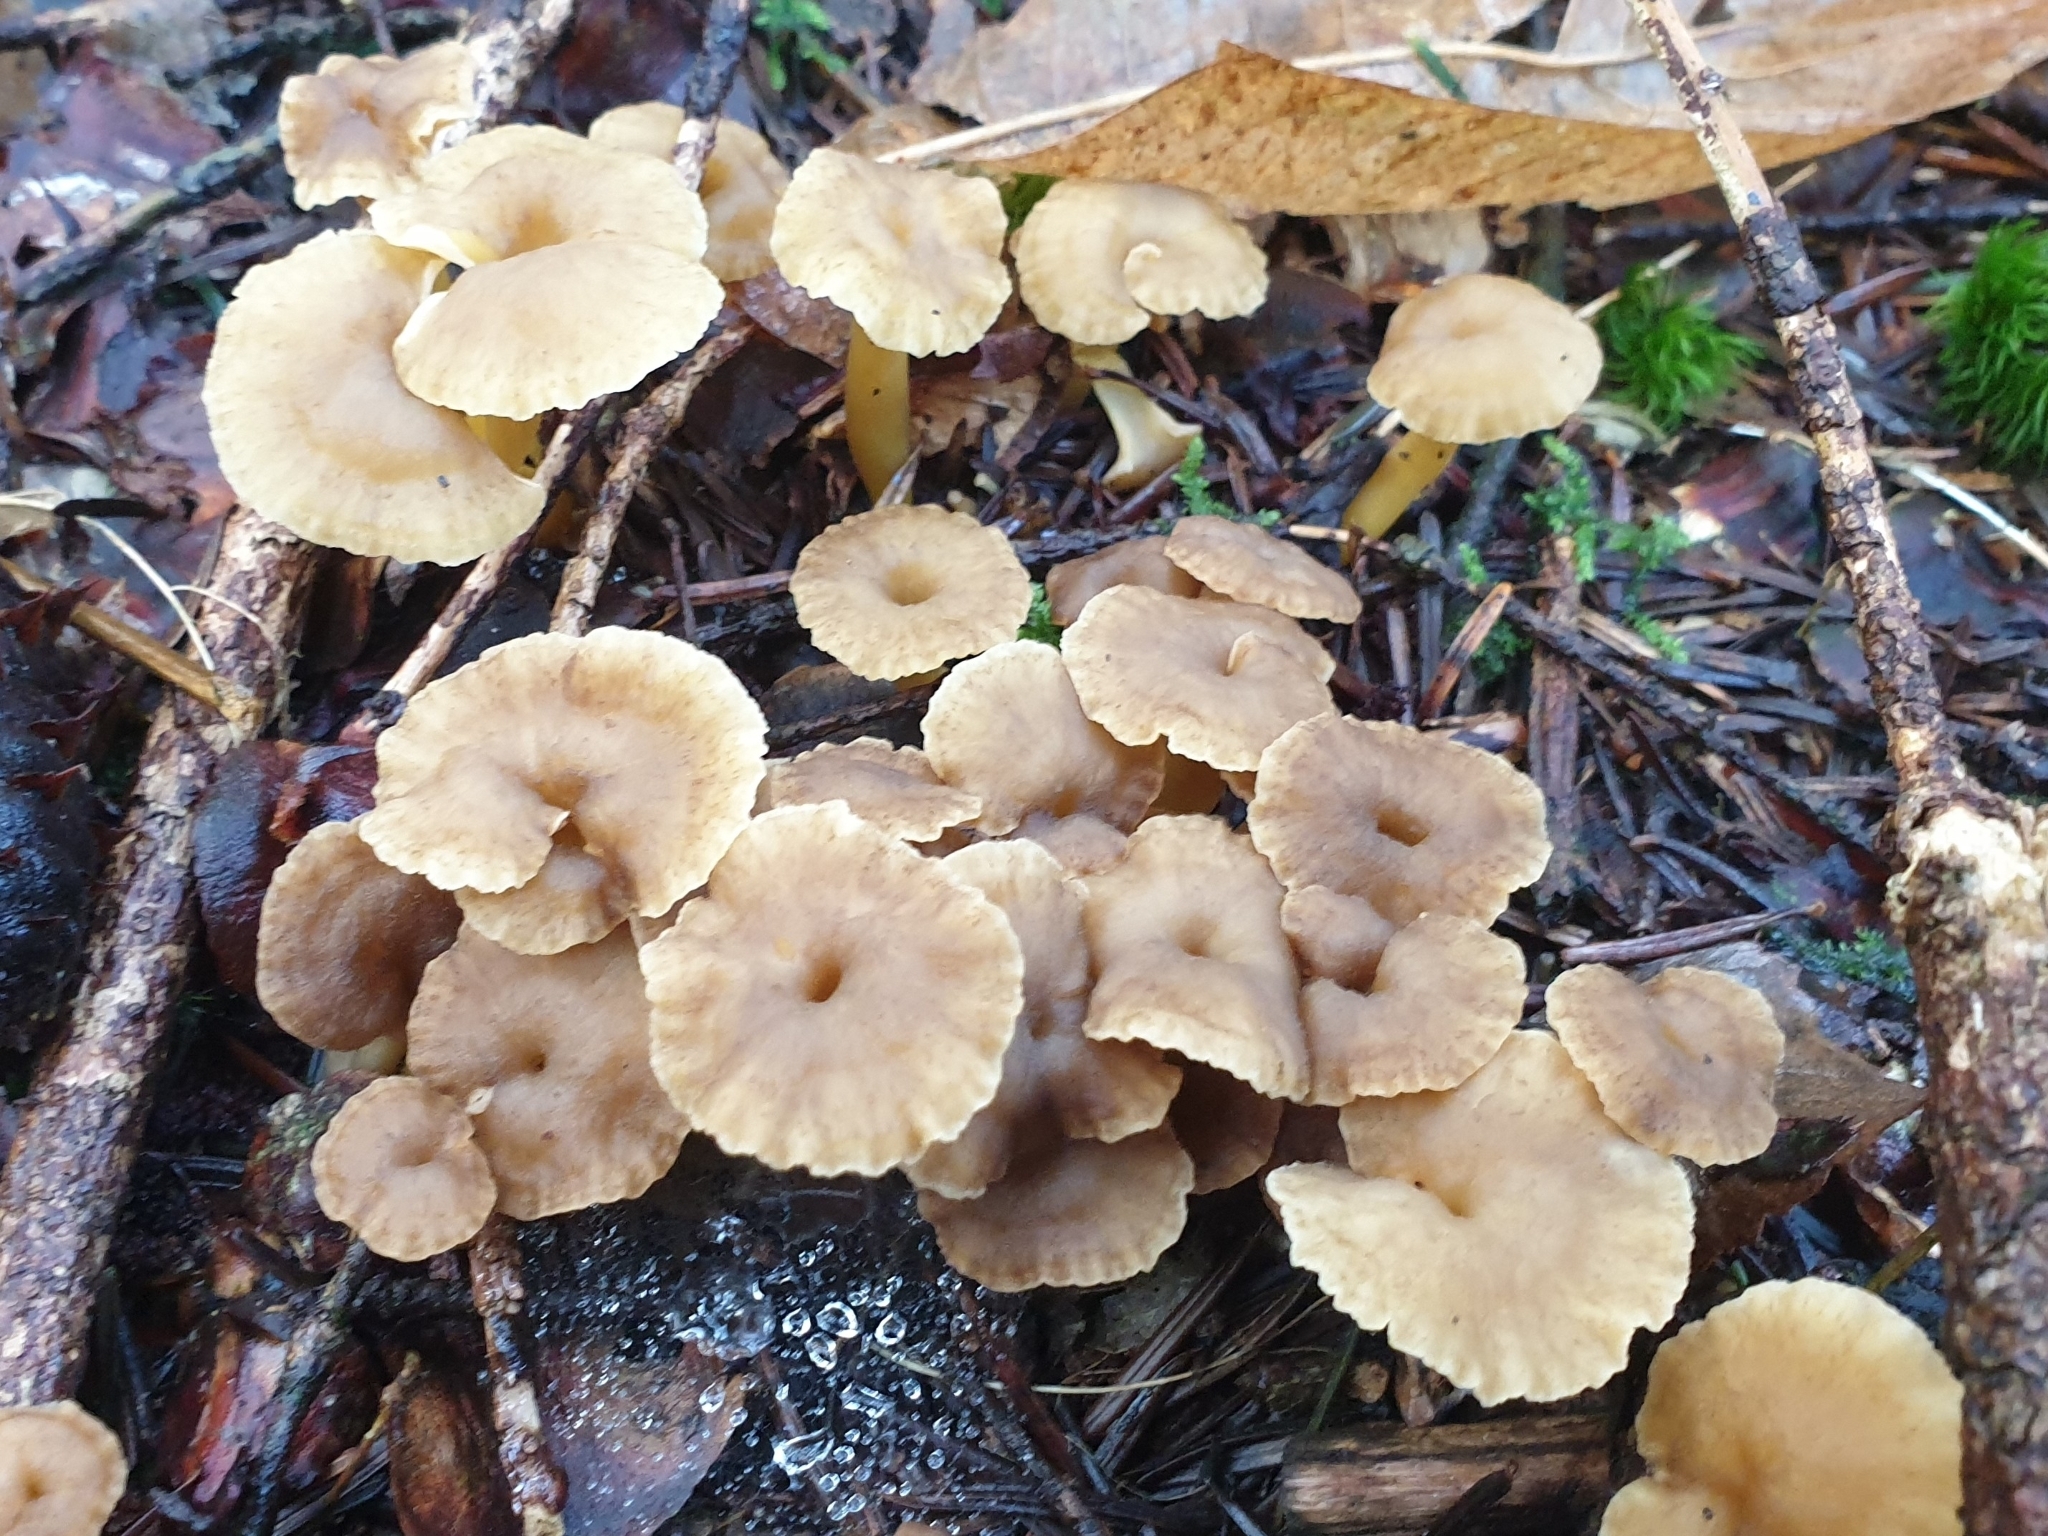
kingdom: Fungi
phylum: Basidiomycota
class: Agaricomycetes
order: Cantharellales
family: Hydnaceae
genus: Craterellus
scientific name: Craterellus tubaeformis
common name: Yellowfoot
